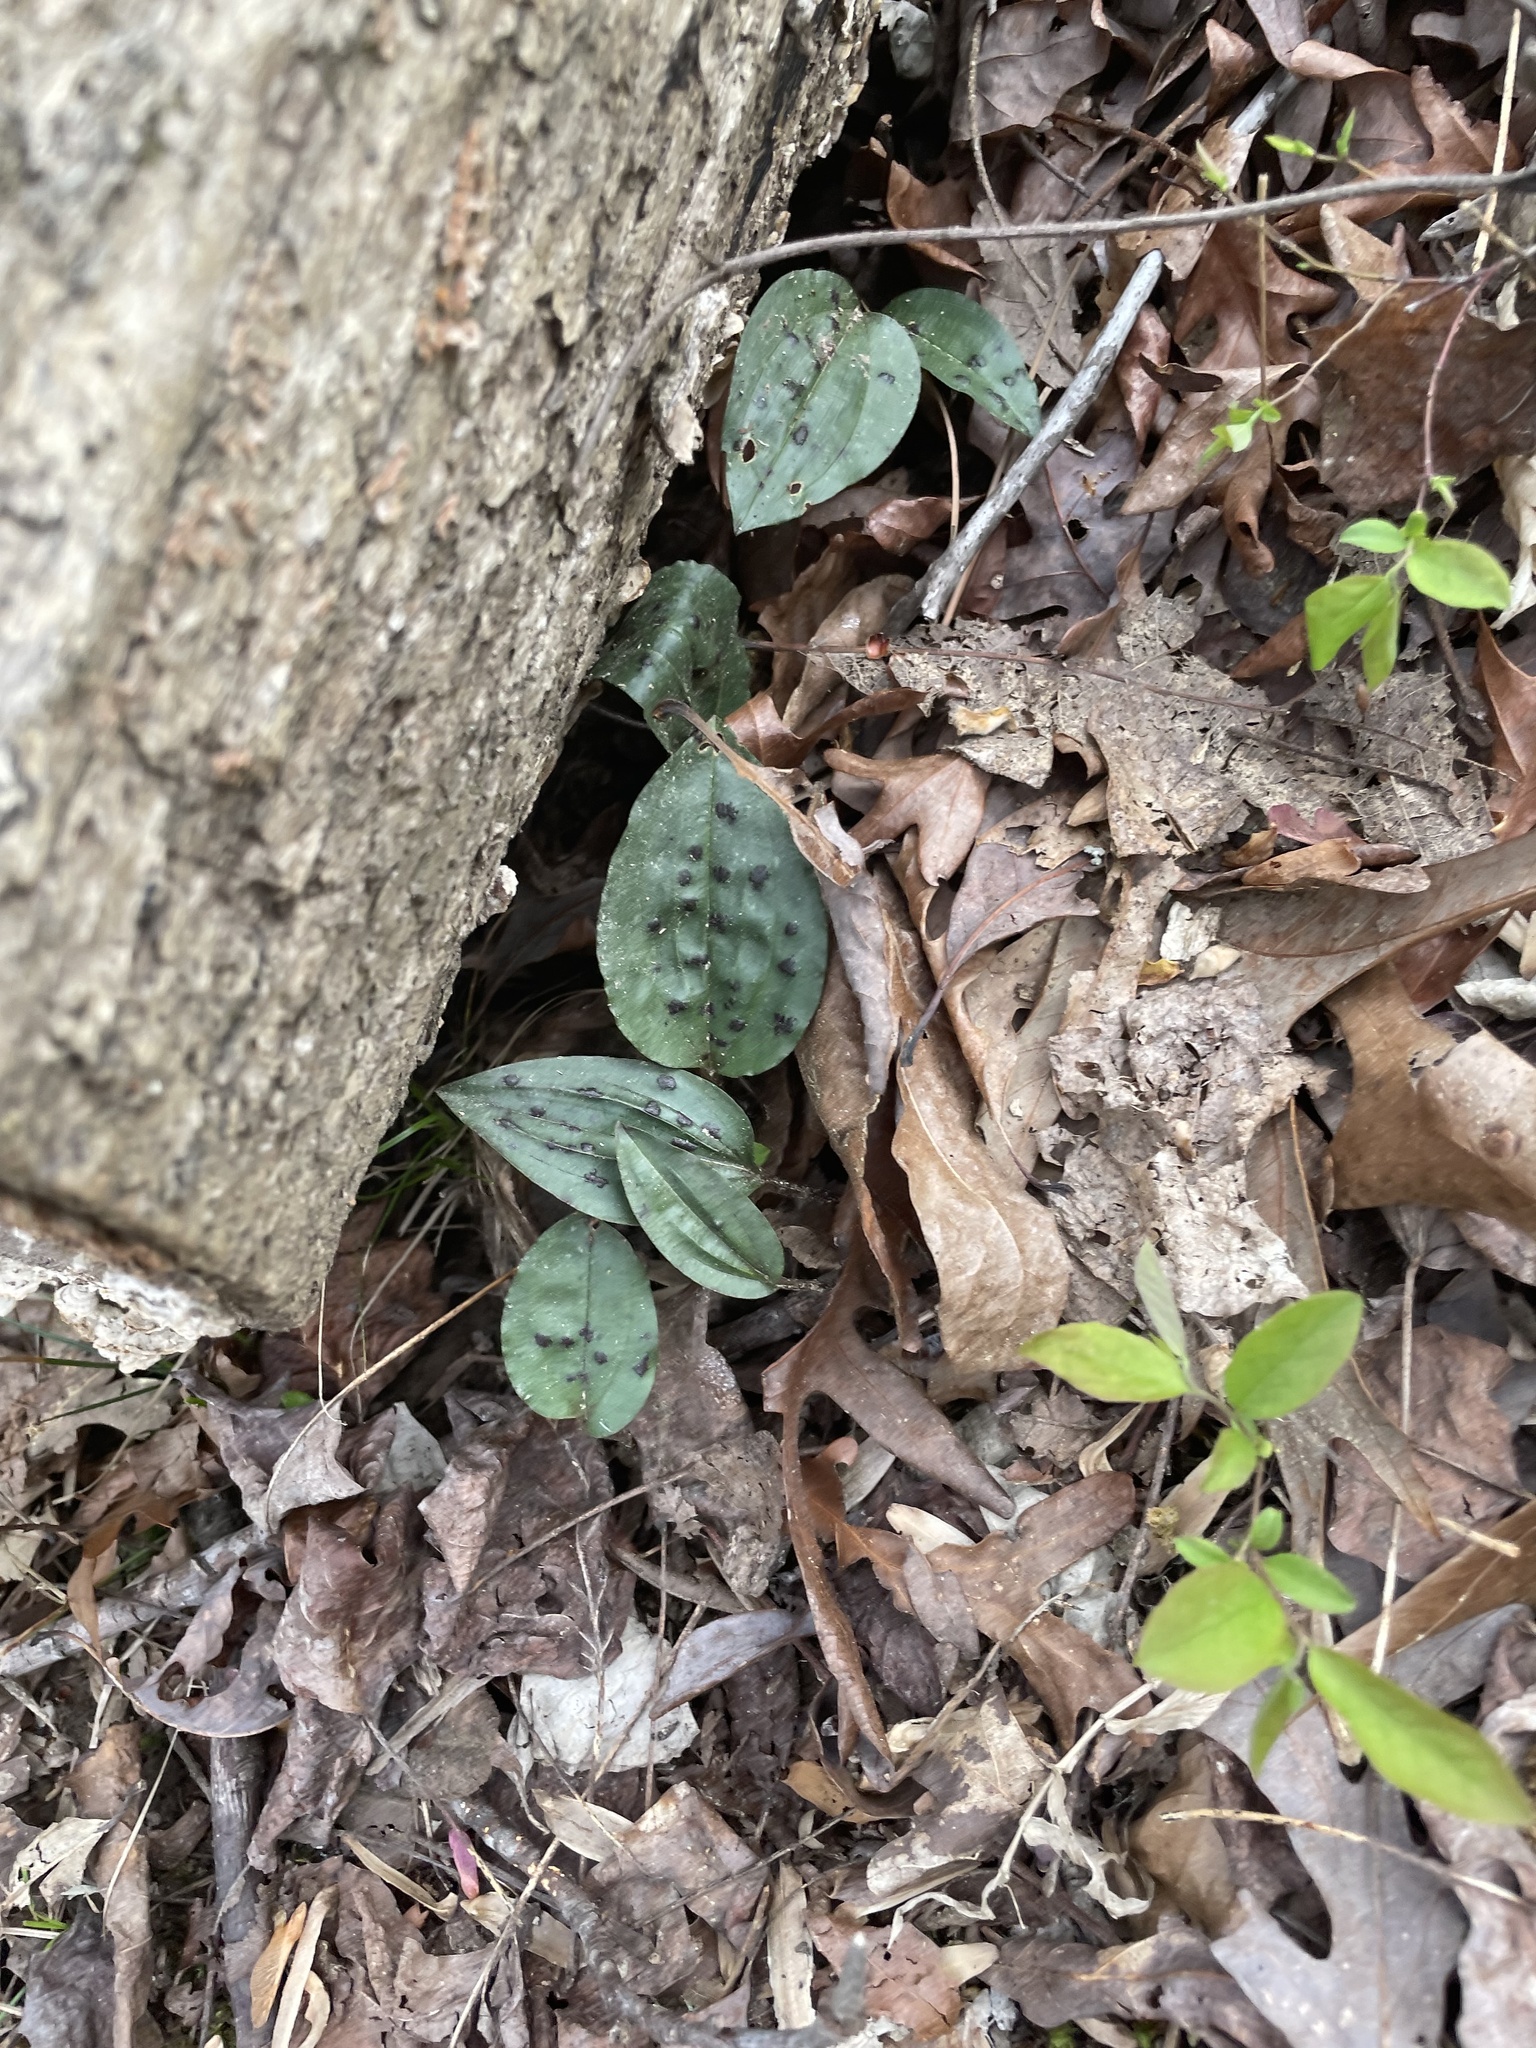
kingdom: Plantae
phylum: Tracheophyta
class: Liliopsida
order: Asparagales
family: Orchidaceae
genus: Tipularia
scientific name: Tipularia discolor
